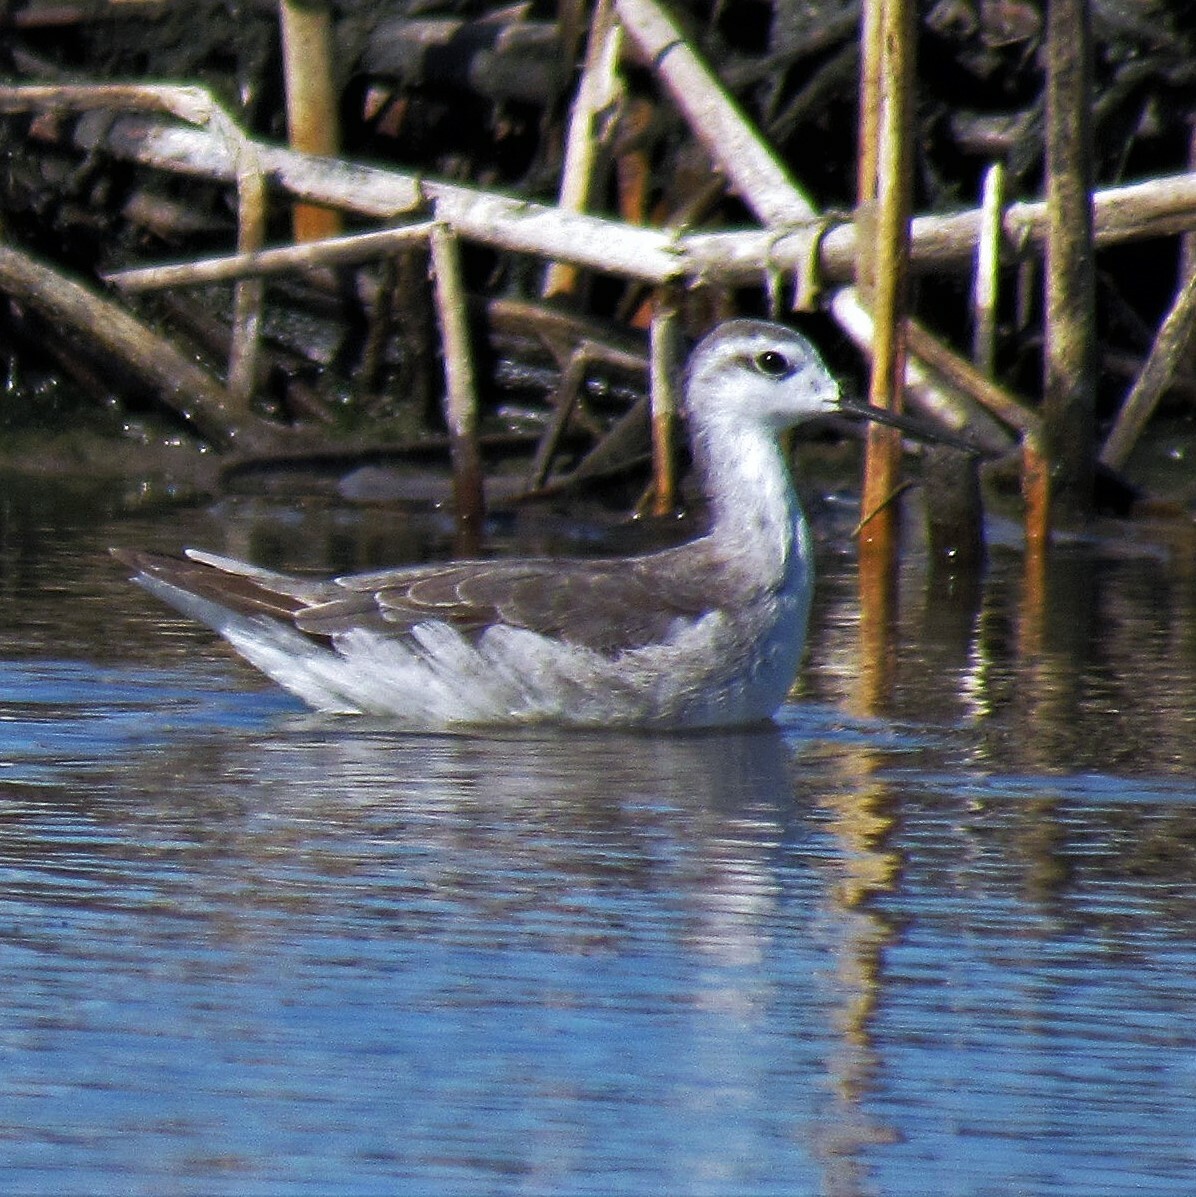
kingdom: Animalia
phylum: Chordata
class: Aves
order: Charadriiformes
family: Scolopacidae
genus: Phalaropus
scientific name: Phalaropus tricolor
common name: Wilson's phalarope
